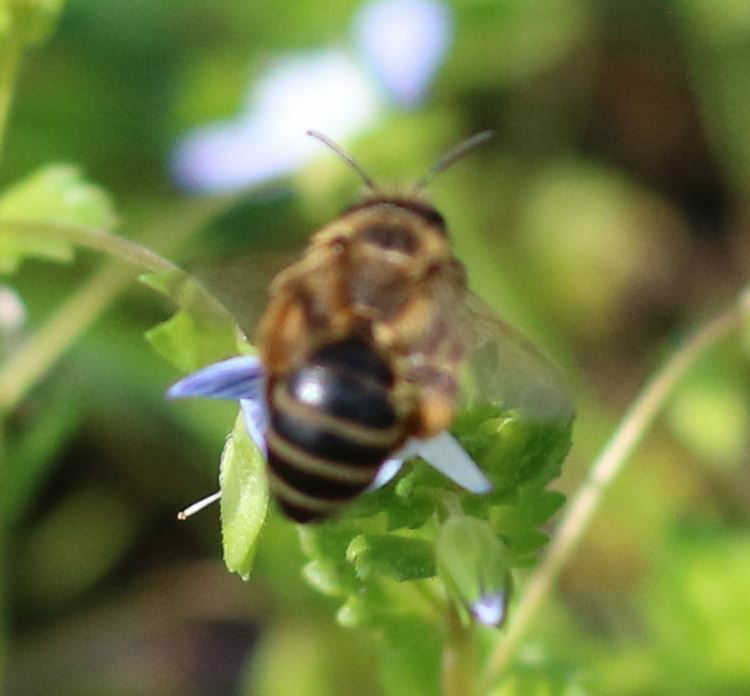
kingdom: Animalia
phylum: Arthropoda
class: Insecta
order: Hymenoptera
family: Andrenidae
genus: Andrena
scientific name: Andrena flavipes
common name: Yellow-legged mining bee
